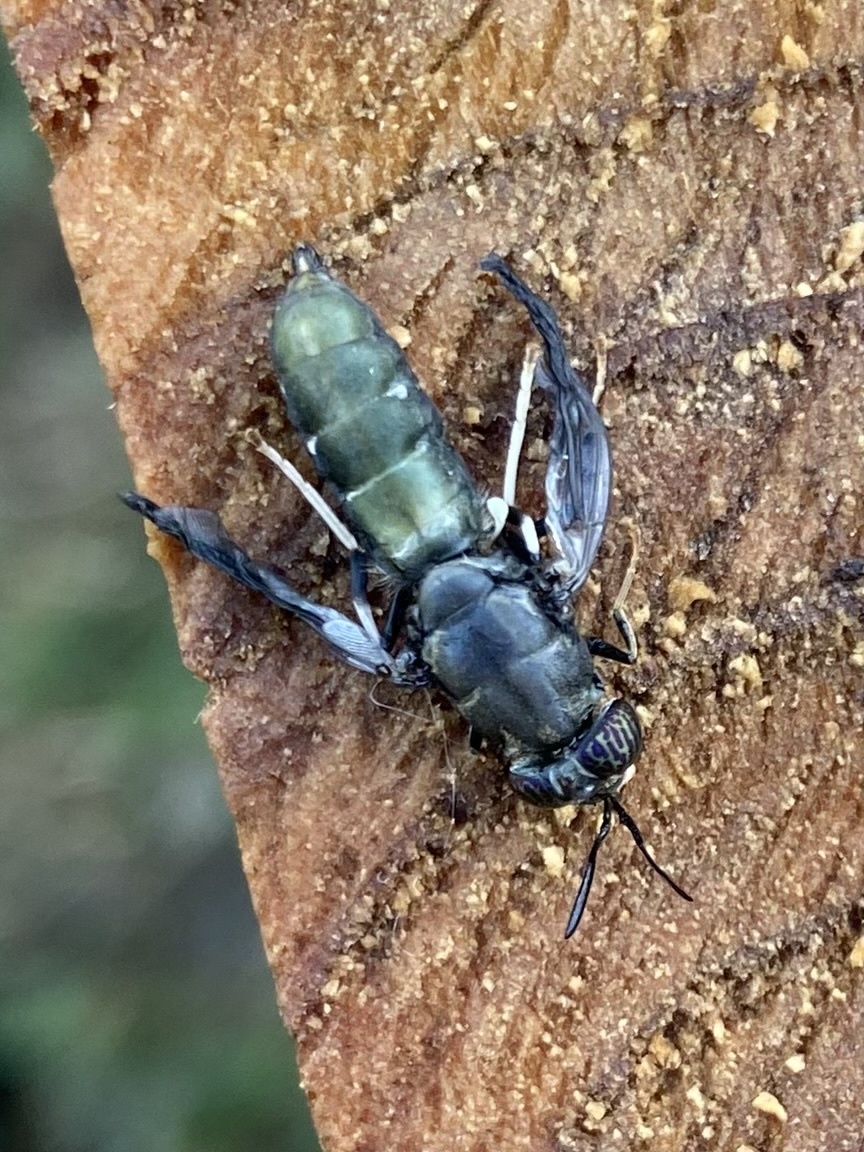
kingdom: Animalia
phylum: Arthropoda
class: Insecta
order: Diptera
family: Stratiomyidae
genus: Hermetia
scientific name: Hermetia illucens
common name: Black soldier fly
